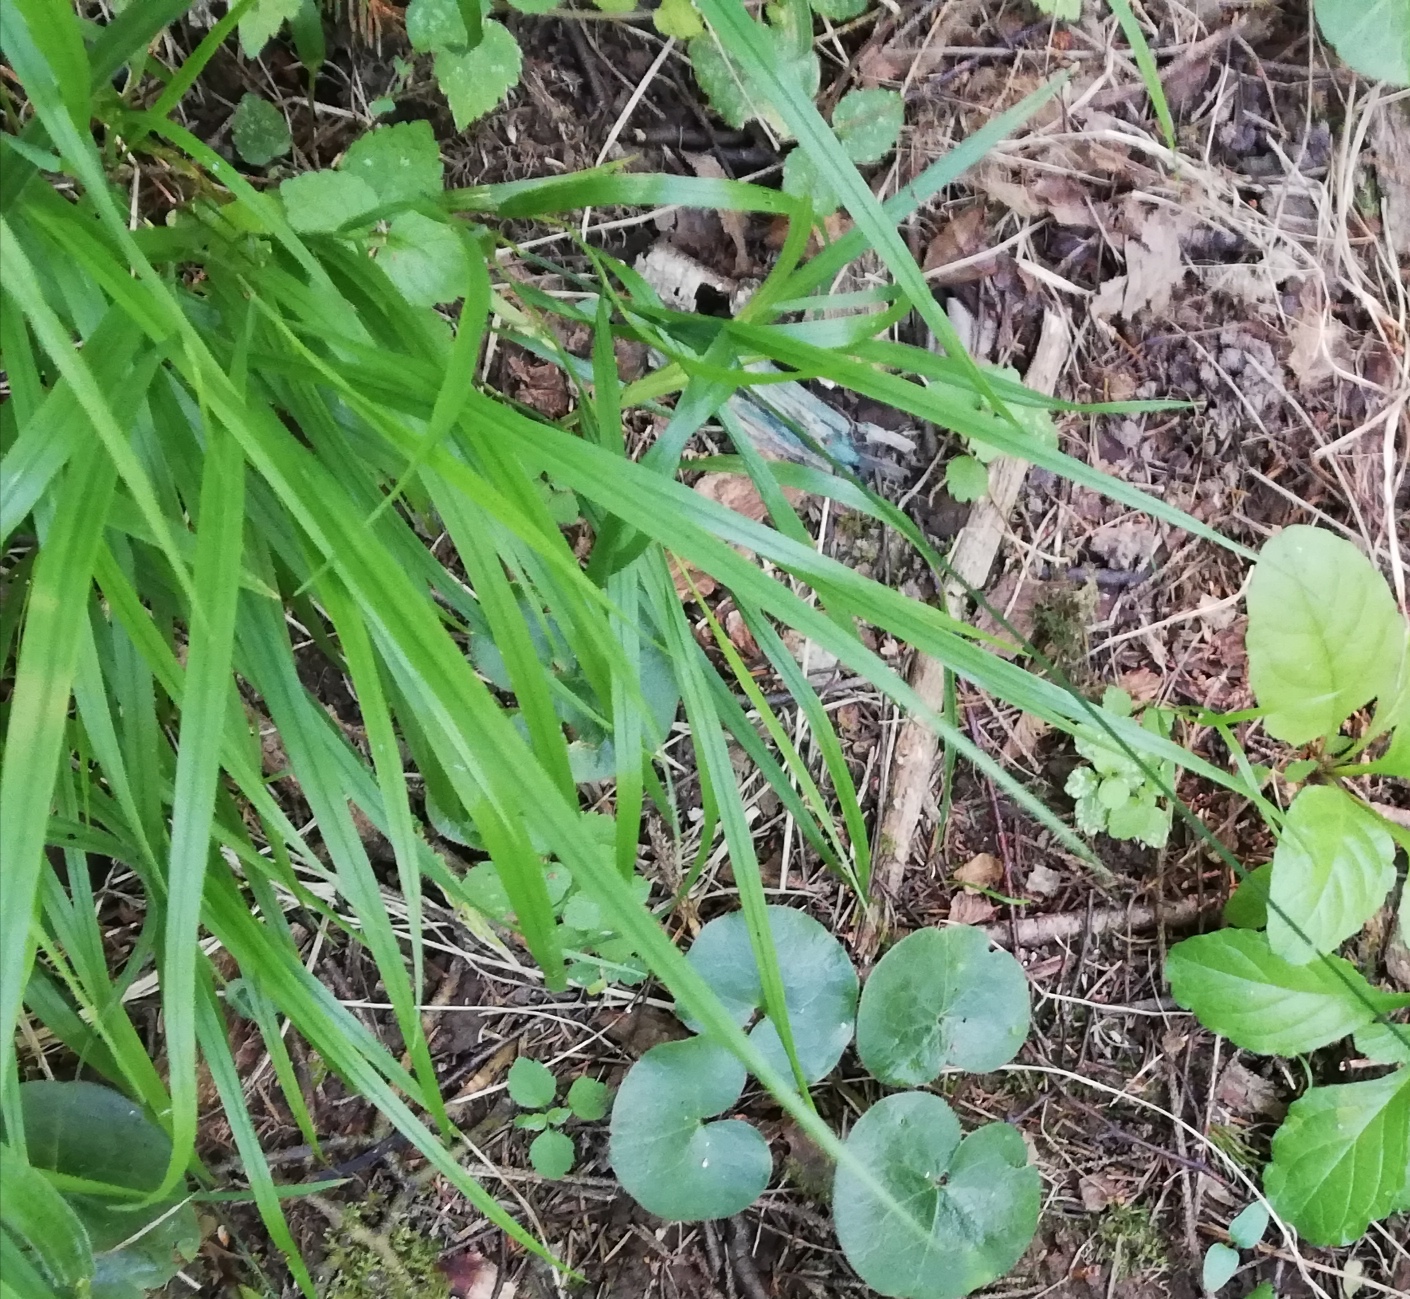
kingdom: Plantae
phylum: Tracheophyta
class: Liliopsida
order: Poales
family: Poaceae
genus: Melica
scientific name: Melica nutans
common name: Mountain melick
